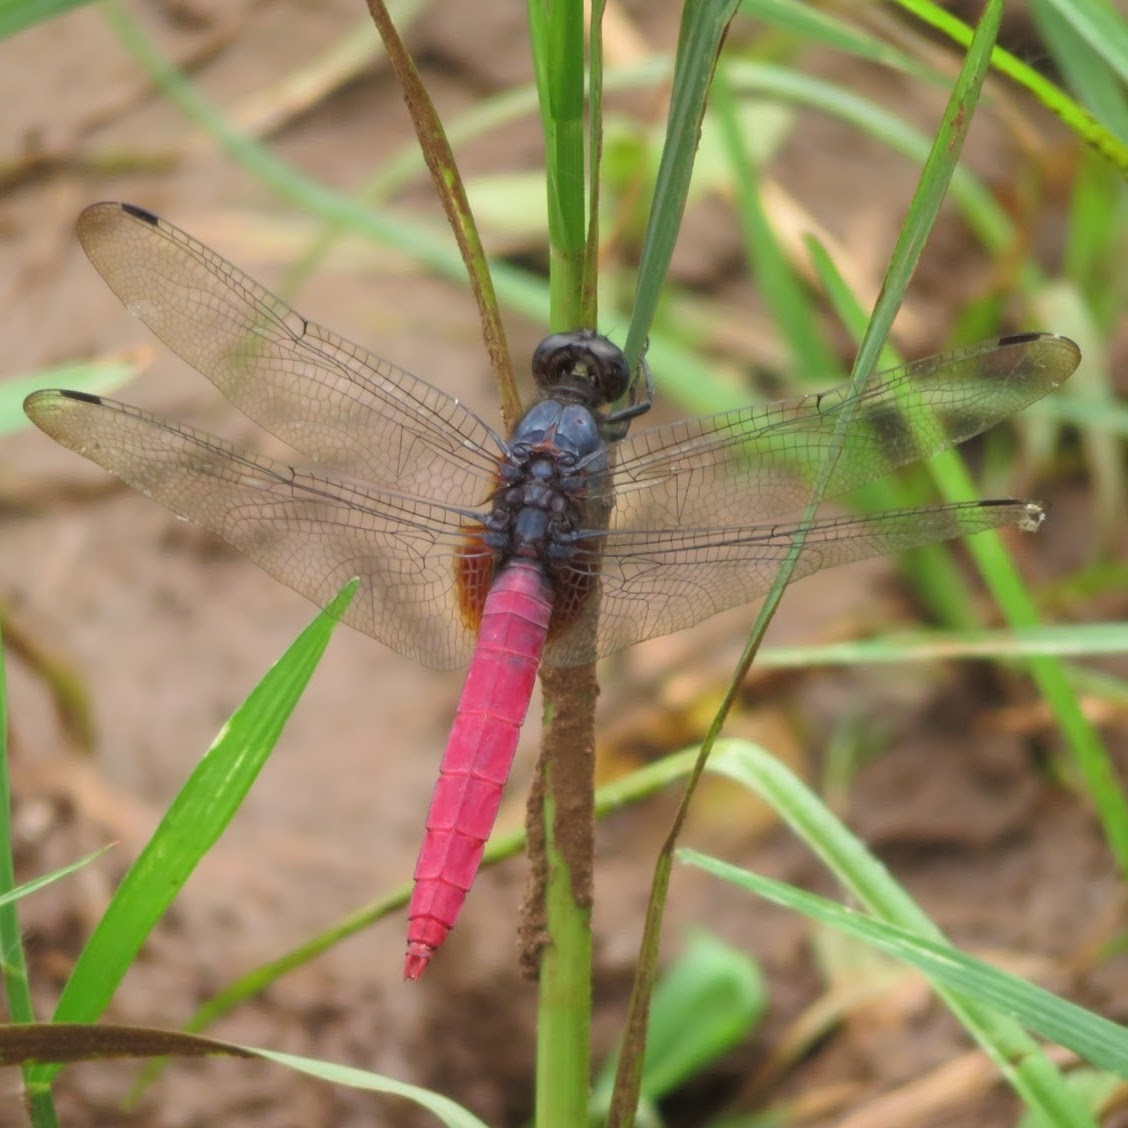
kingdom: Animalia
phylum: Arthropoda
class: Insecta
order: Odonata
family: Libellulidae
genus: Orthetrum
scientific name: Orthetrum pruinosum
